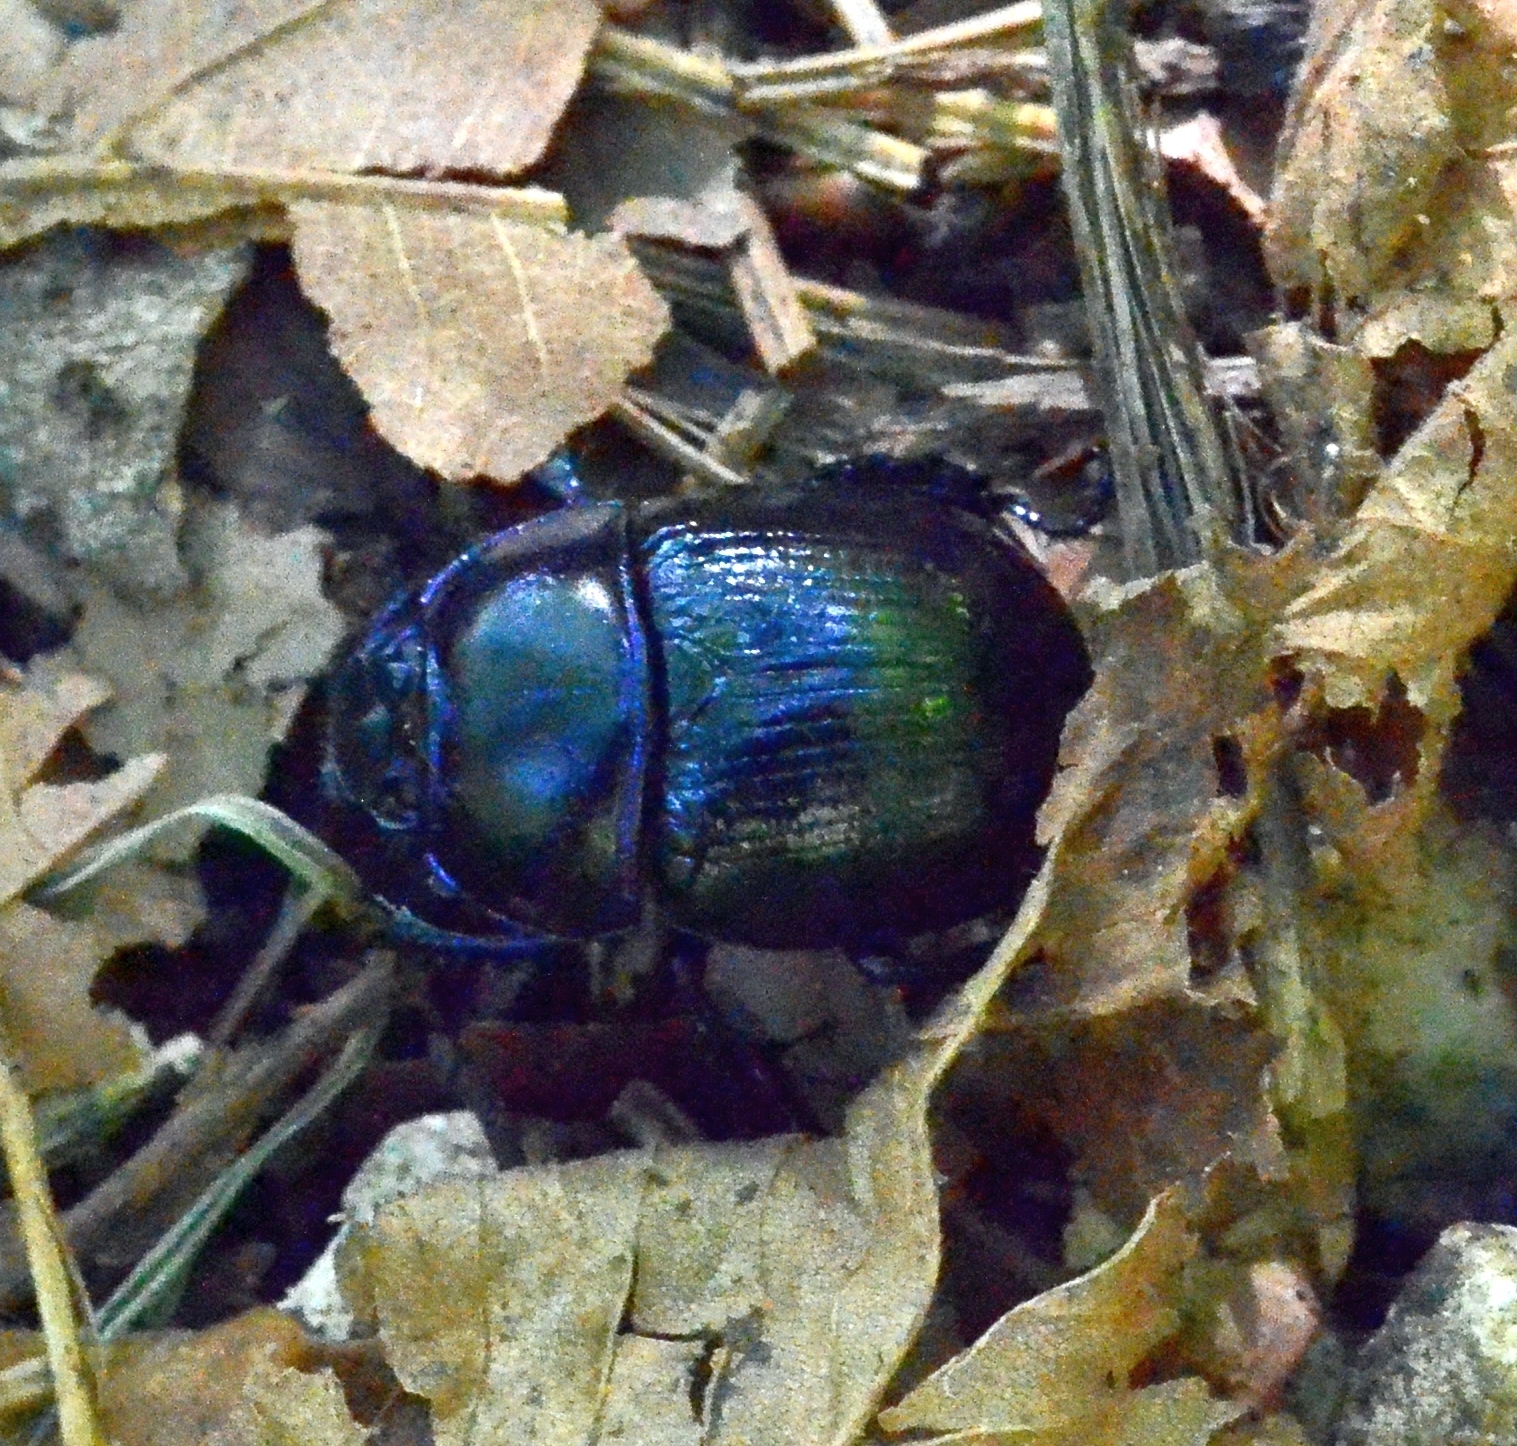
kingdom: Animalia
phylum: Arthropoda
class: Insecta
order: Coleoptera
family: Geotrupidae
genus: Anoplotrupes
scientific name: Anoplotrupes stercorosus
